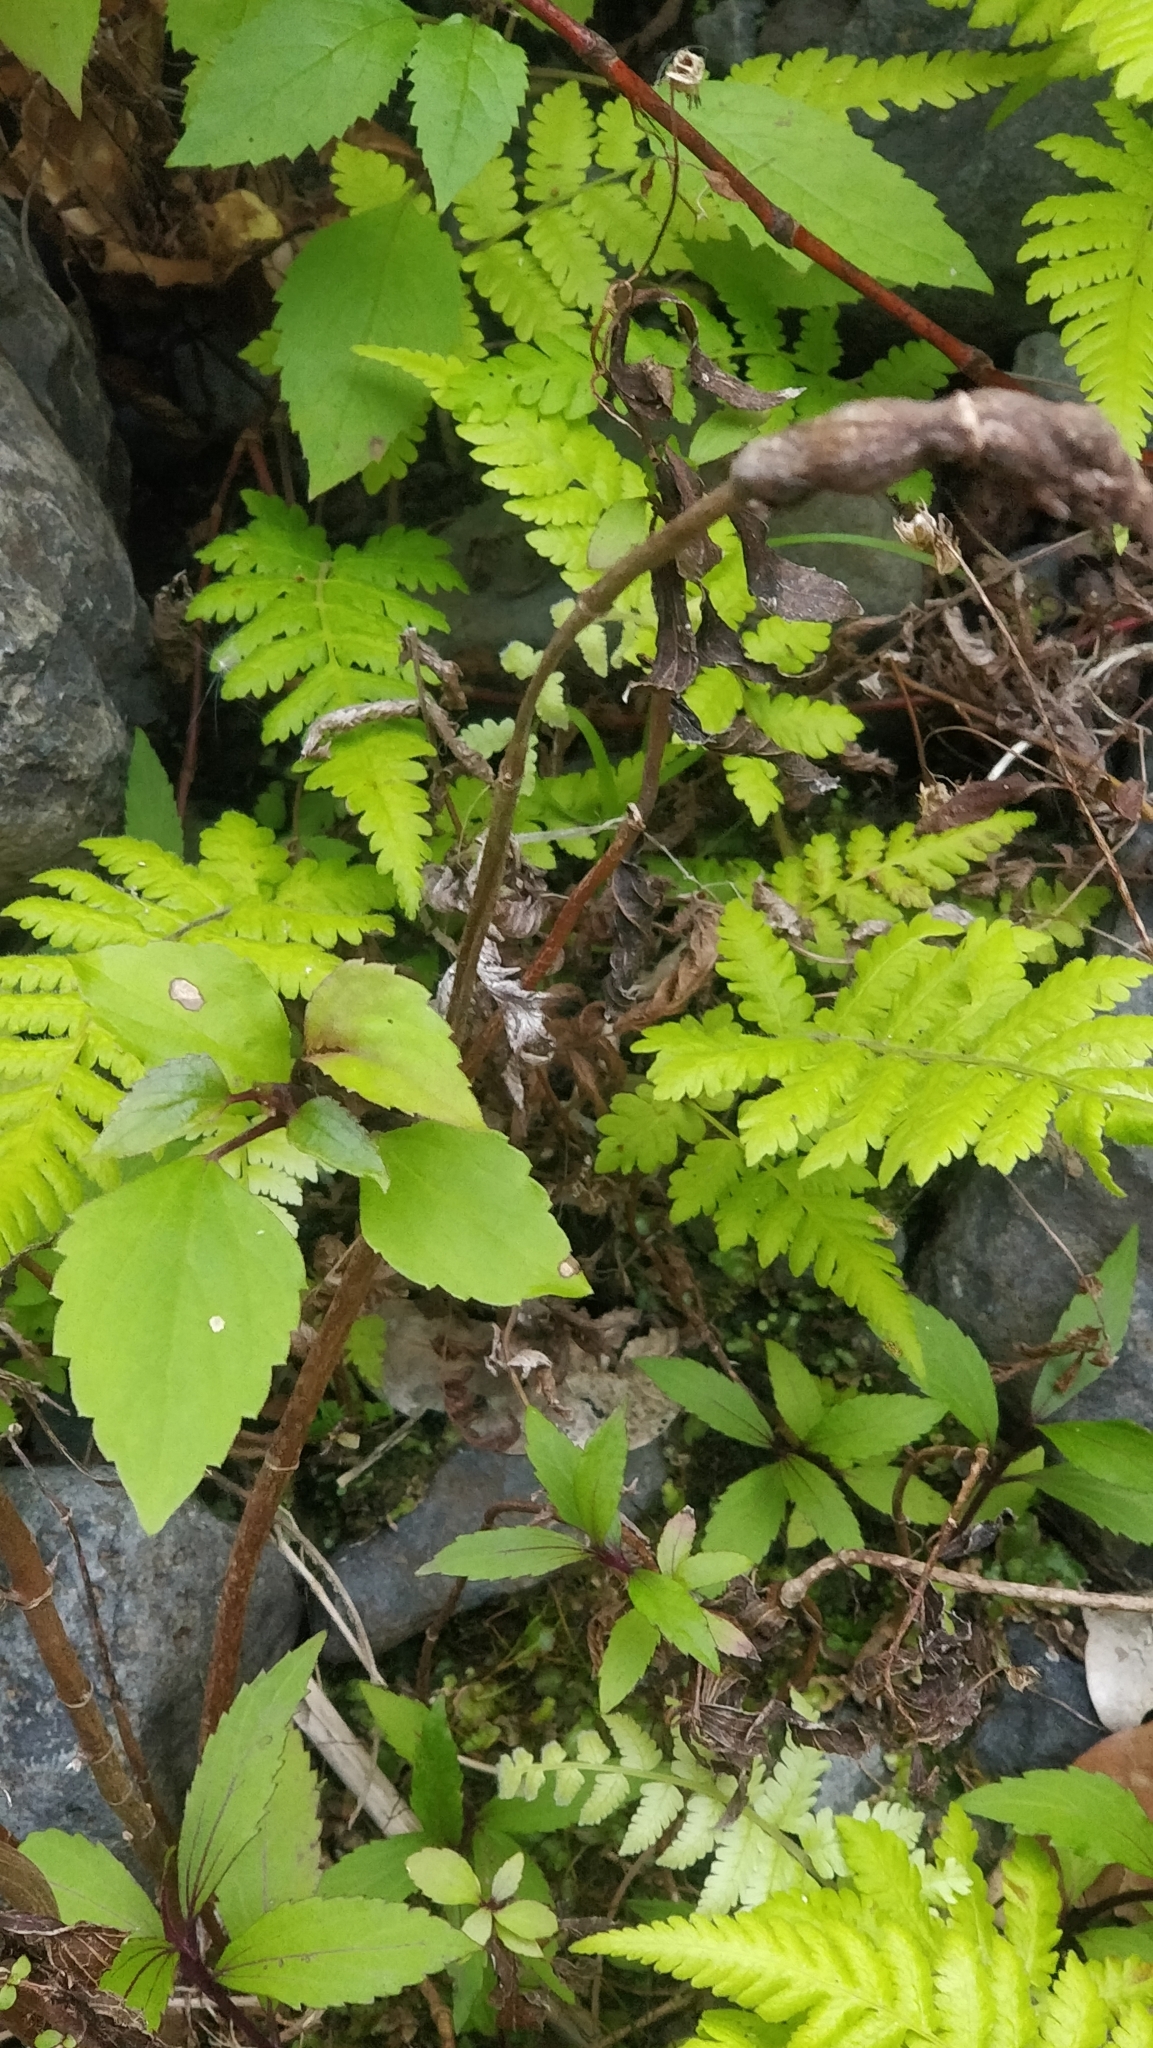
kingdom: Plantae
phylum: Tracheophyta
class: Polypodiopsida
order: Polypodiales
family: Athyriaceae
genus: Deparia
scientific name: Deparia petersenii
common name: Japanese false spleenwort
